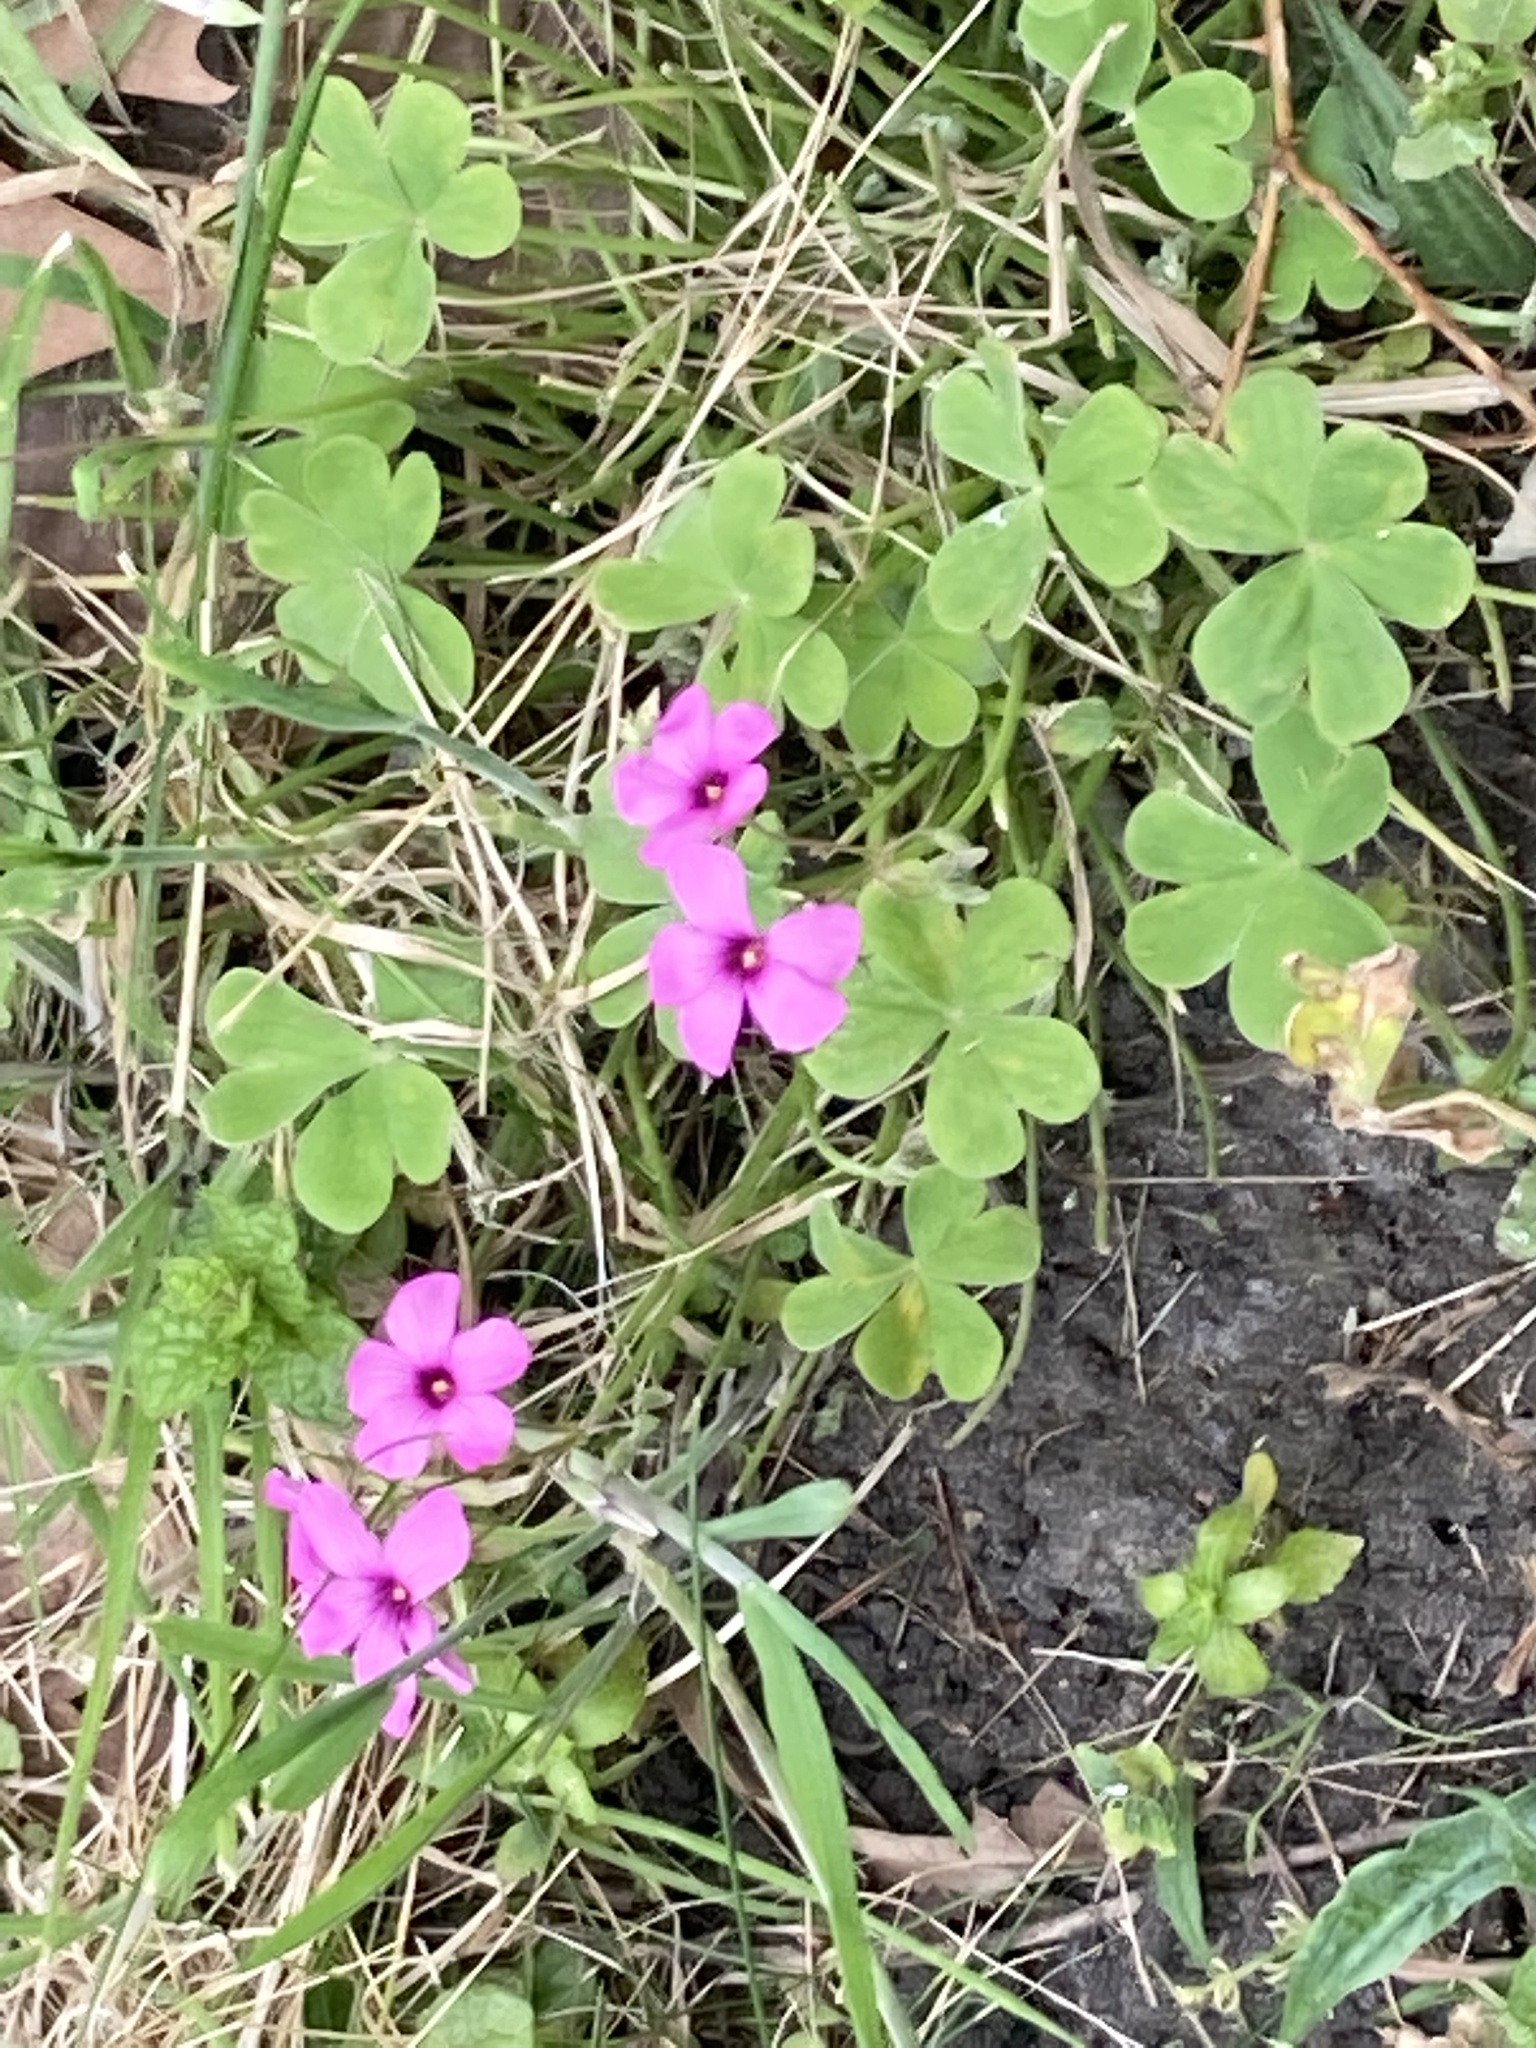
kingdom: Plantae
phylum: Tracheophyta
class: Magnoliopsida
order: Oxalidales
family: Oxalidaceae
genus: Oxalis
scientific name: Oxalis articulata
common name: Pink-sorrel
